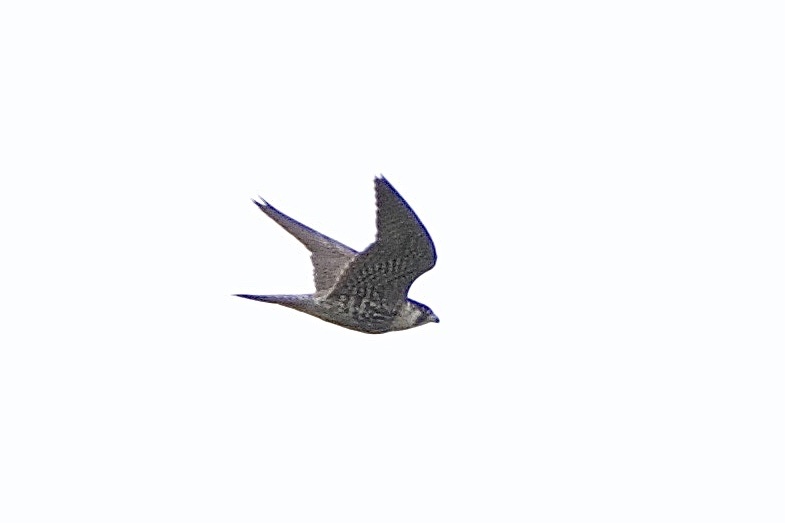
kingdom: Animalia
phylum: Chordata
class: Aves
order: Falconiformes
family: Falconidae
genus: Falco
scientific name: Falco peregrinus
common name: Peregrine falcon
